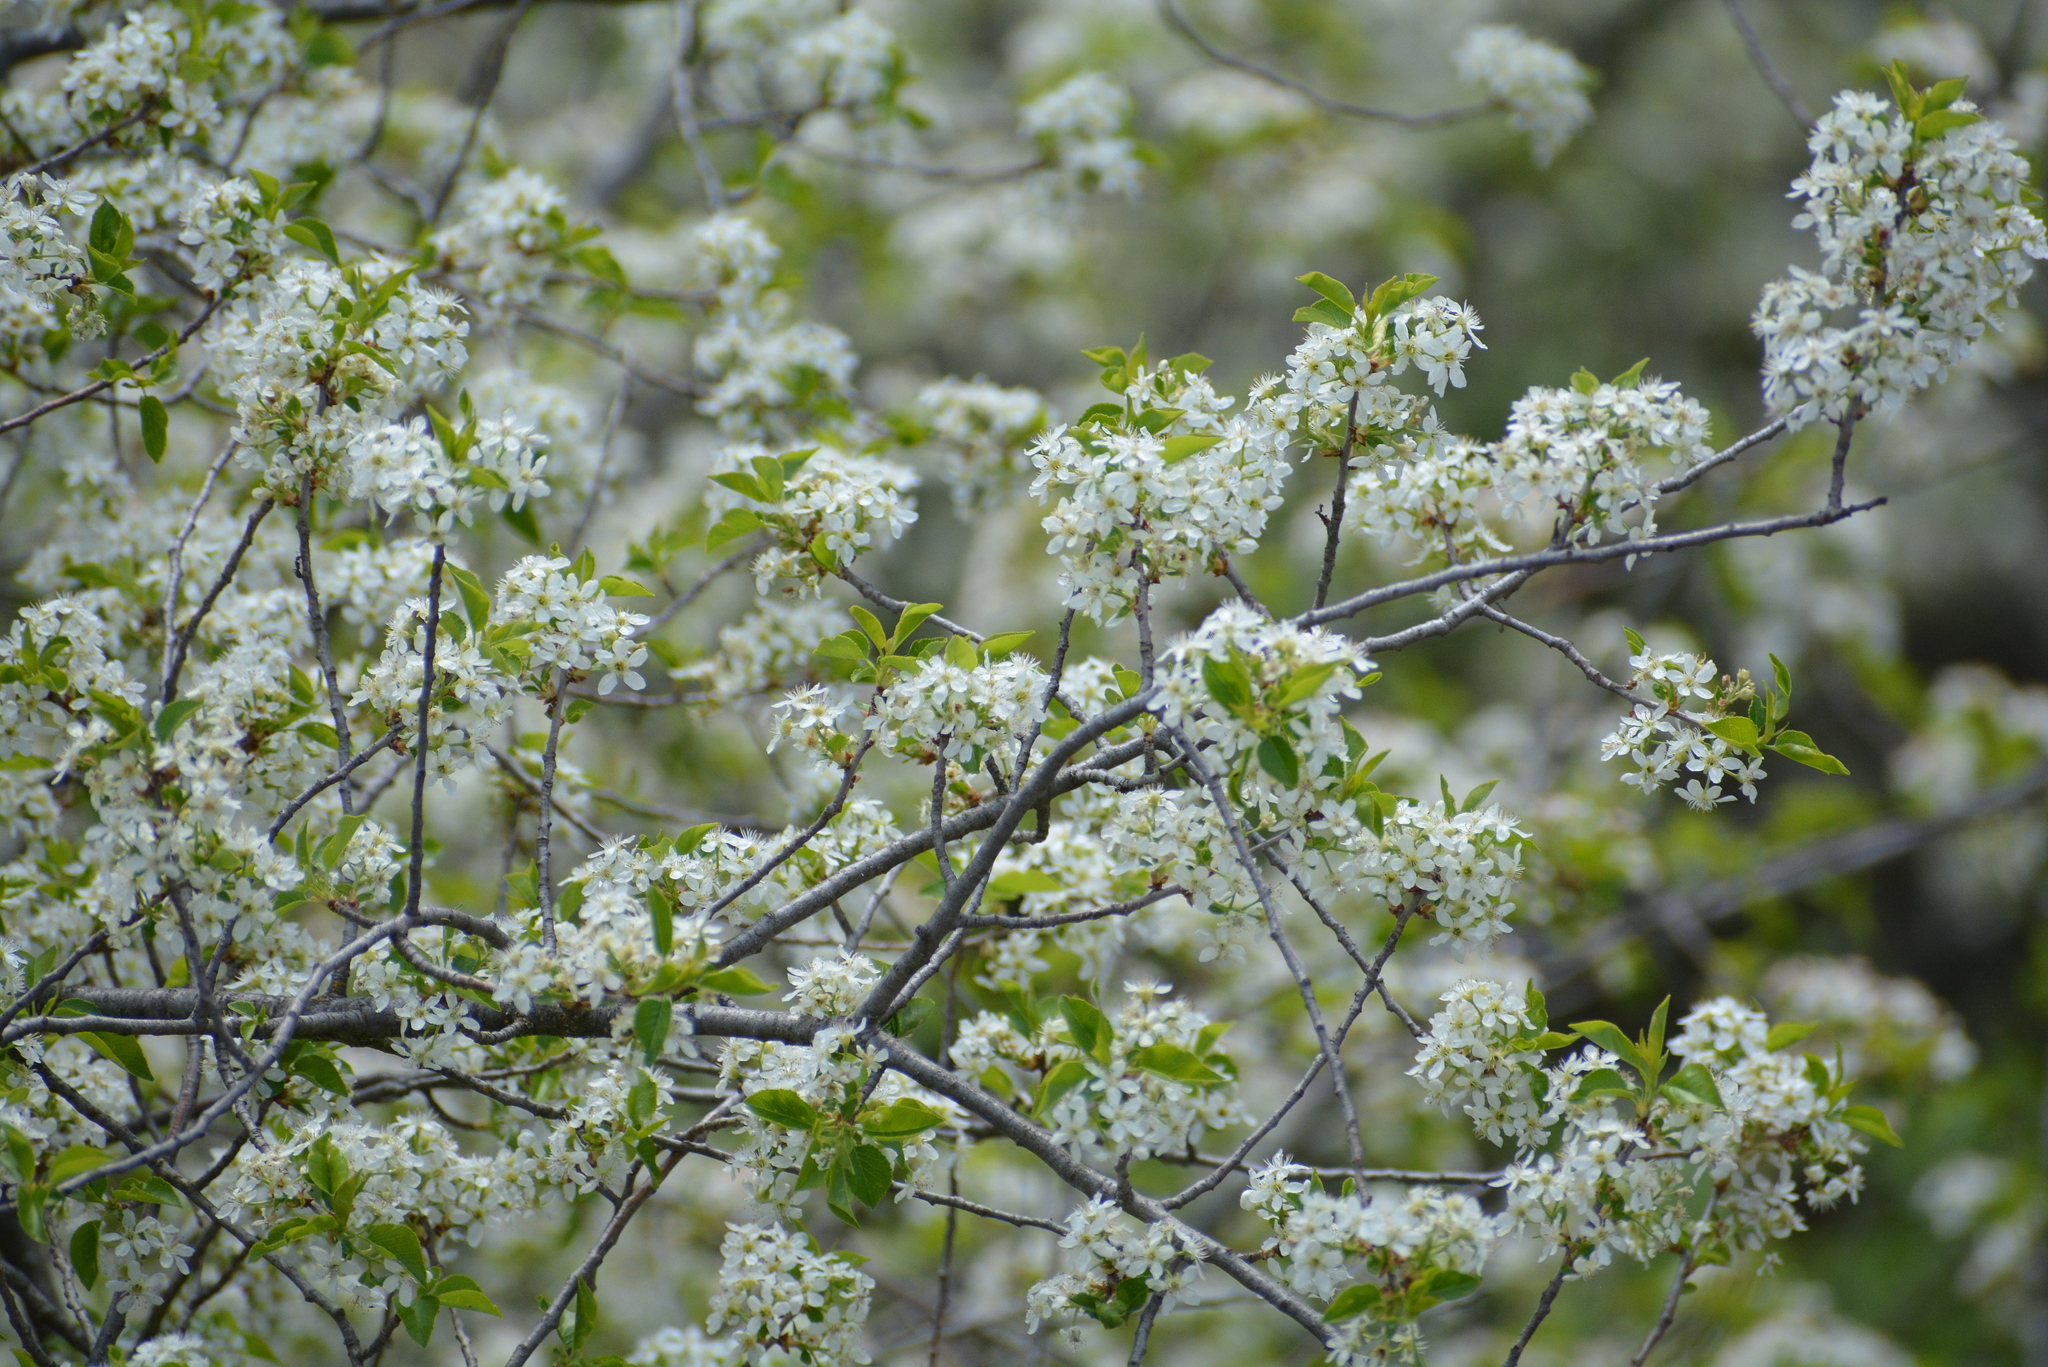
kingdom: Plantae
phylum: Tracheophyta
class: Magnoliopsida
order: Rosales
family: Rosaceae
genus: Prunus
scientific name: Prunus mahaleb
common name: Mahaleb cherry
